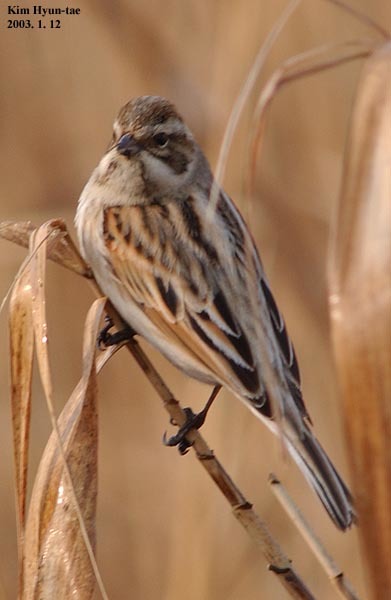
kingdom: Animalia
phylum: Chordata
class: Aves
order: Passeriformes
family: Emberizidae
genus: Emberiza
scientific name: Emberiza schoeniclus
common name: Reed bunting
